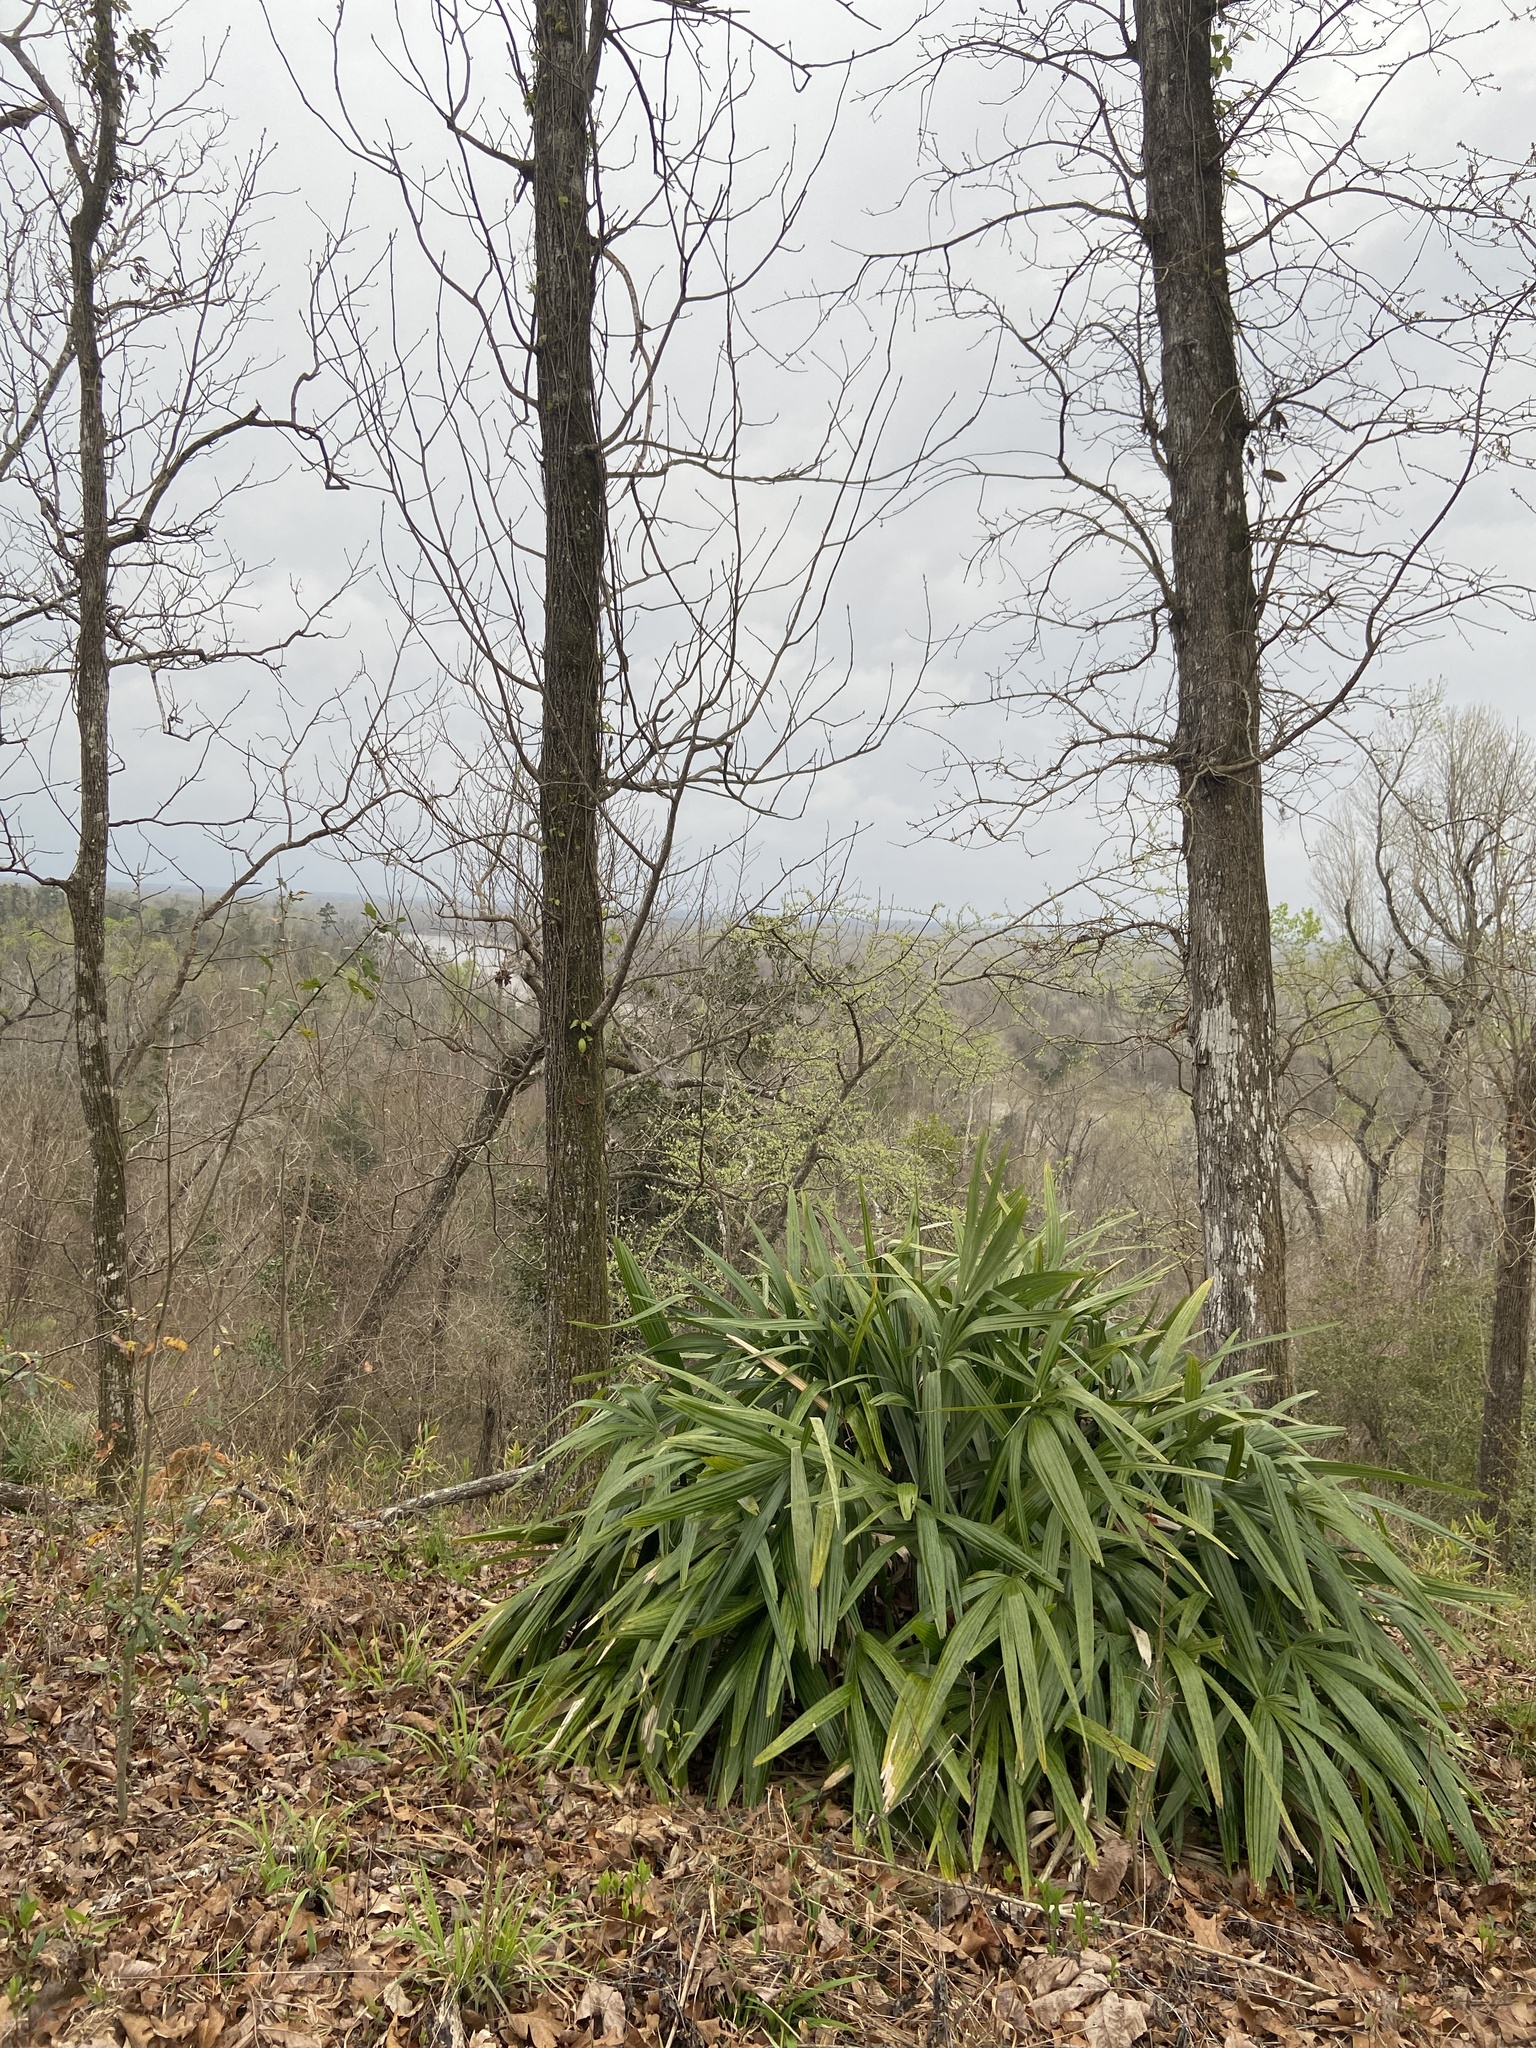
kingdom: Plantae
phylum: Tracheophyta
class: Liliopsida
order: Arecales
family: Arecaceae
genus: Rhapidophyllum
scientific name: Rhapidophyllum hystrix
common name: Porcupine palm
